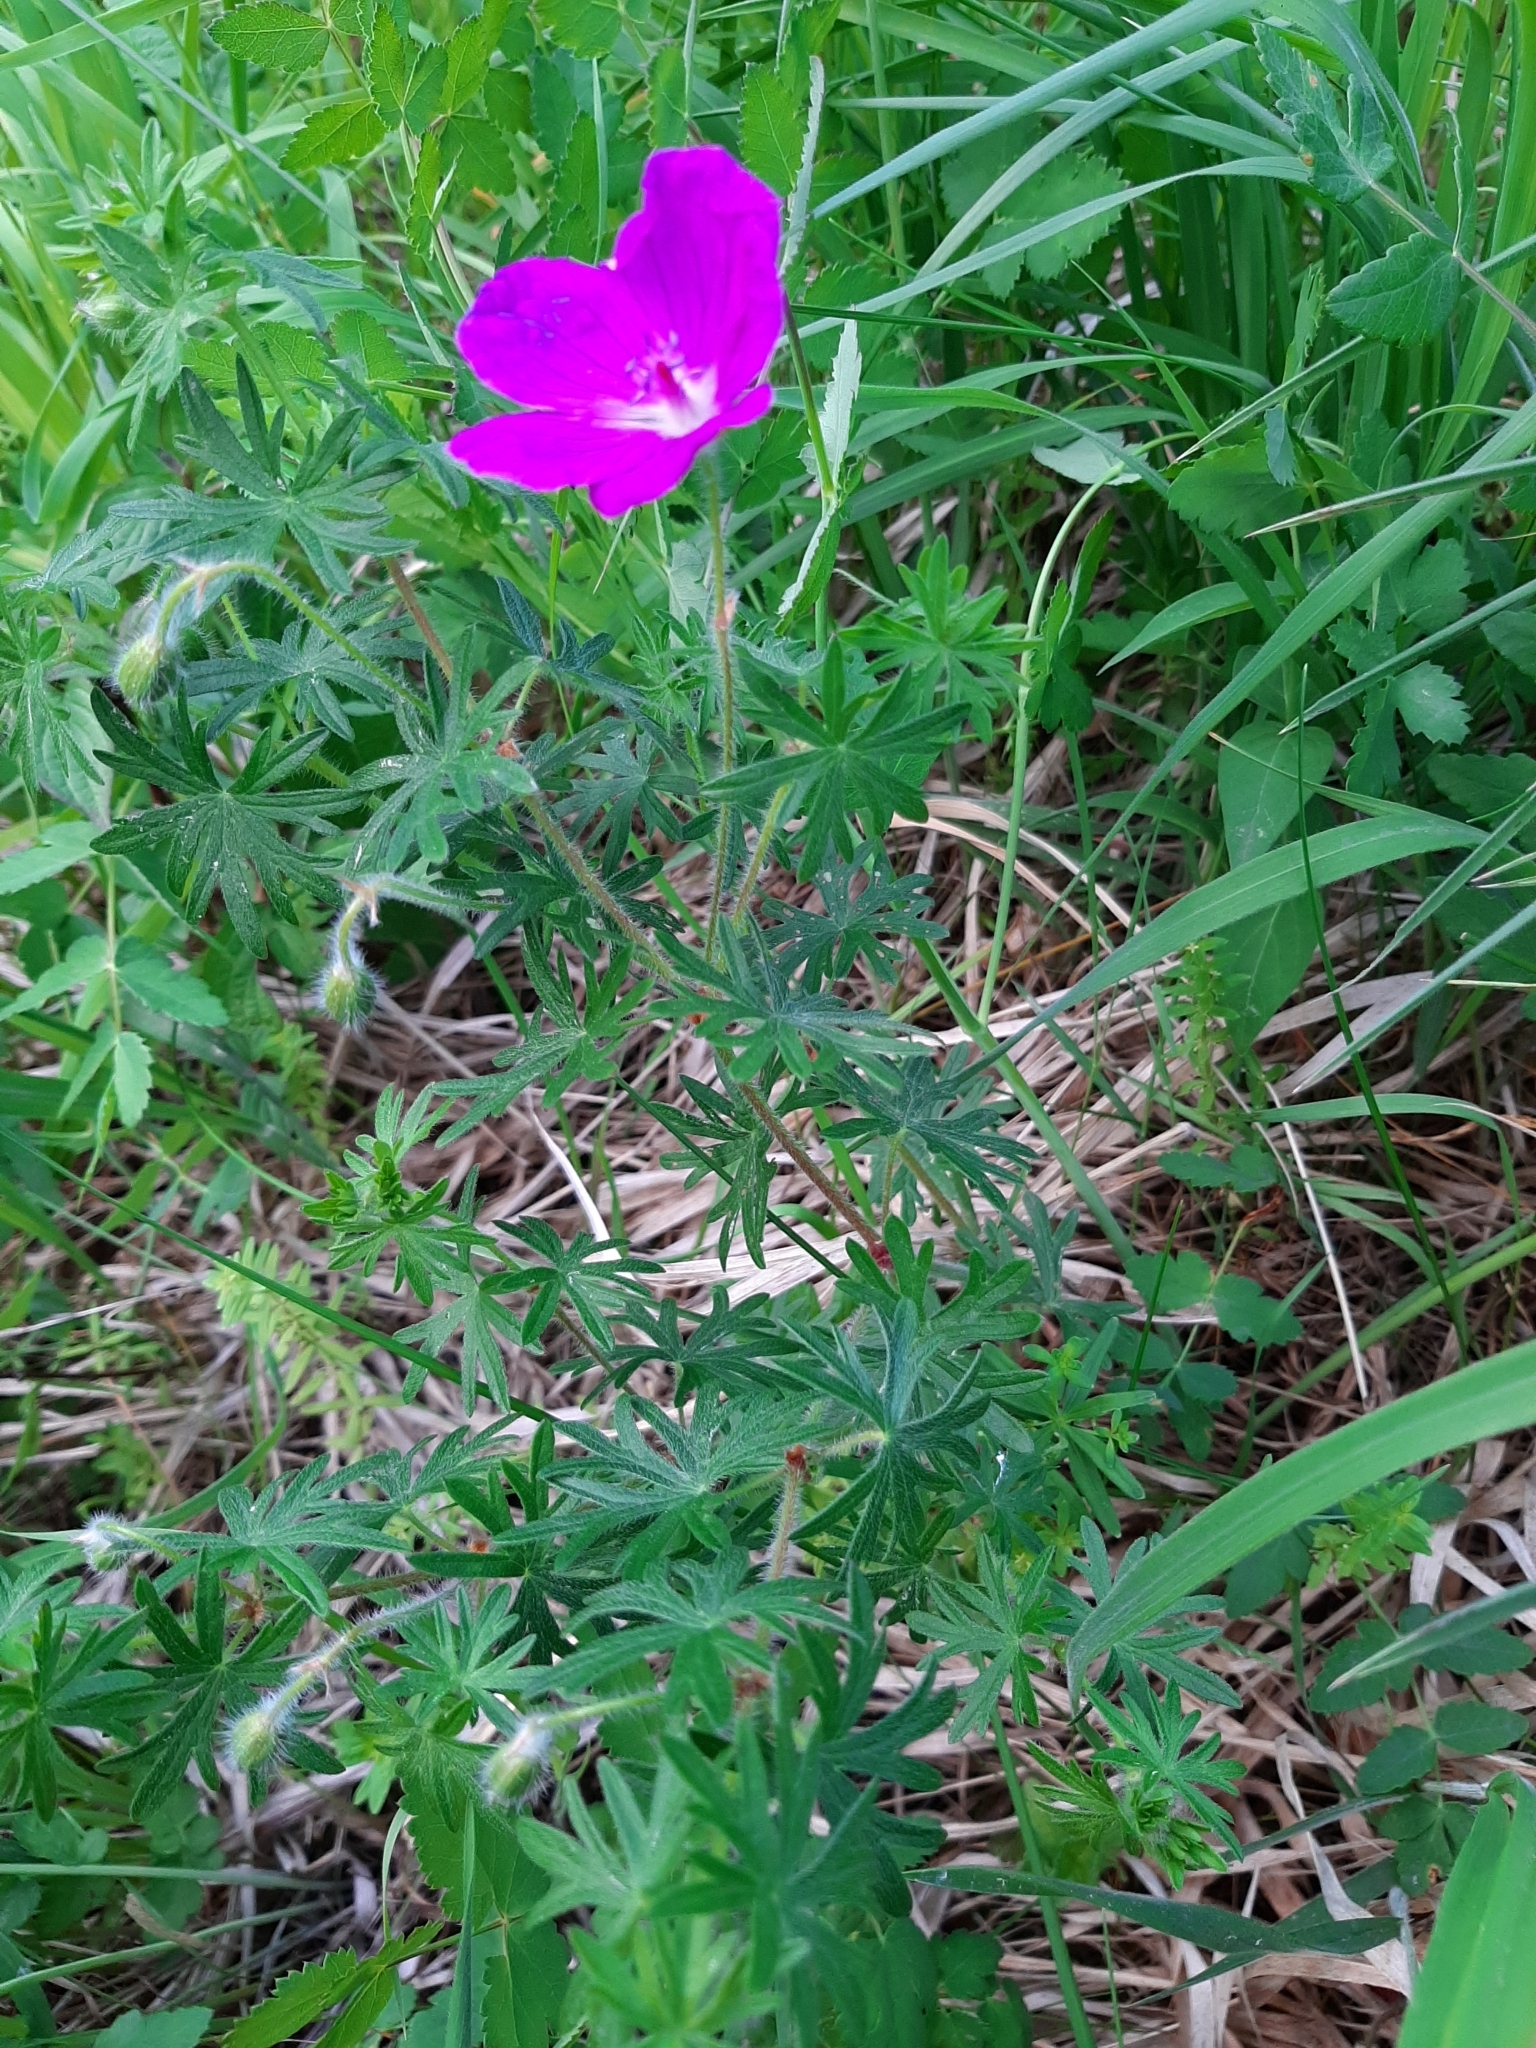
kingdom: Plantae
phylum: Tracheophyta
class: Magnoliopsida
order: Geraniales
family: Geraniaceae
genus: Geranium
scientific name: Geranium sanguineum
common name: Bloody crane's-bill
